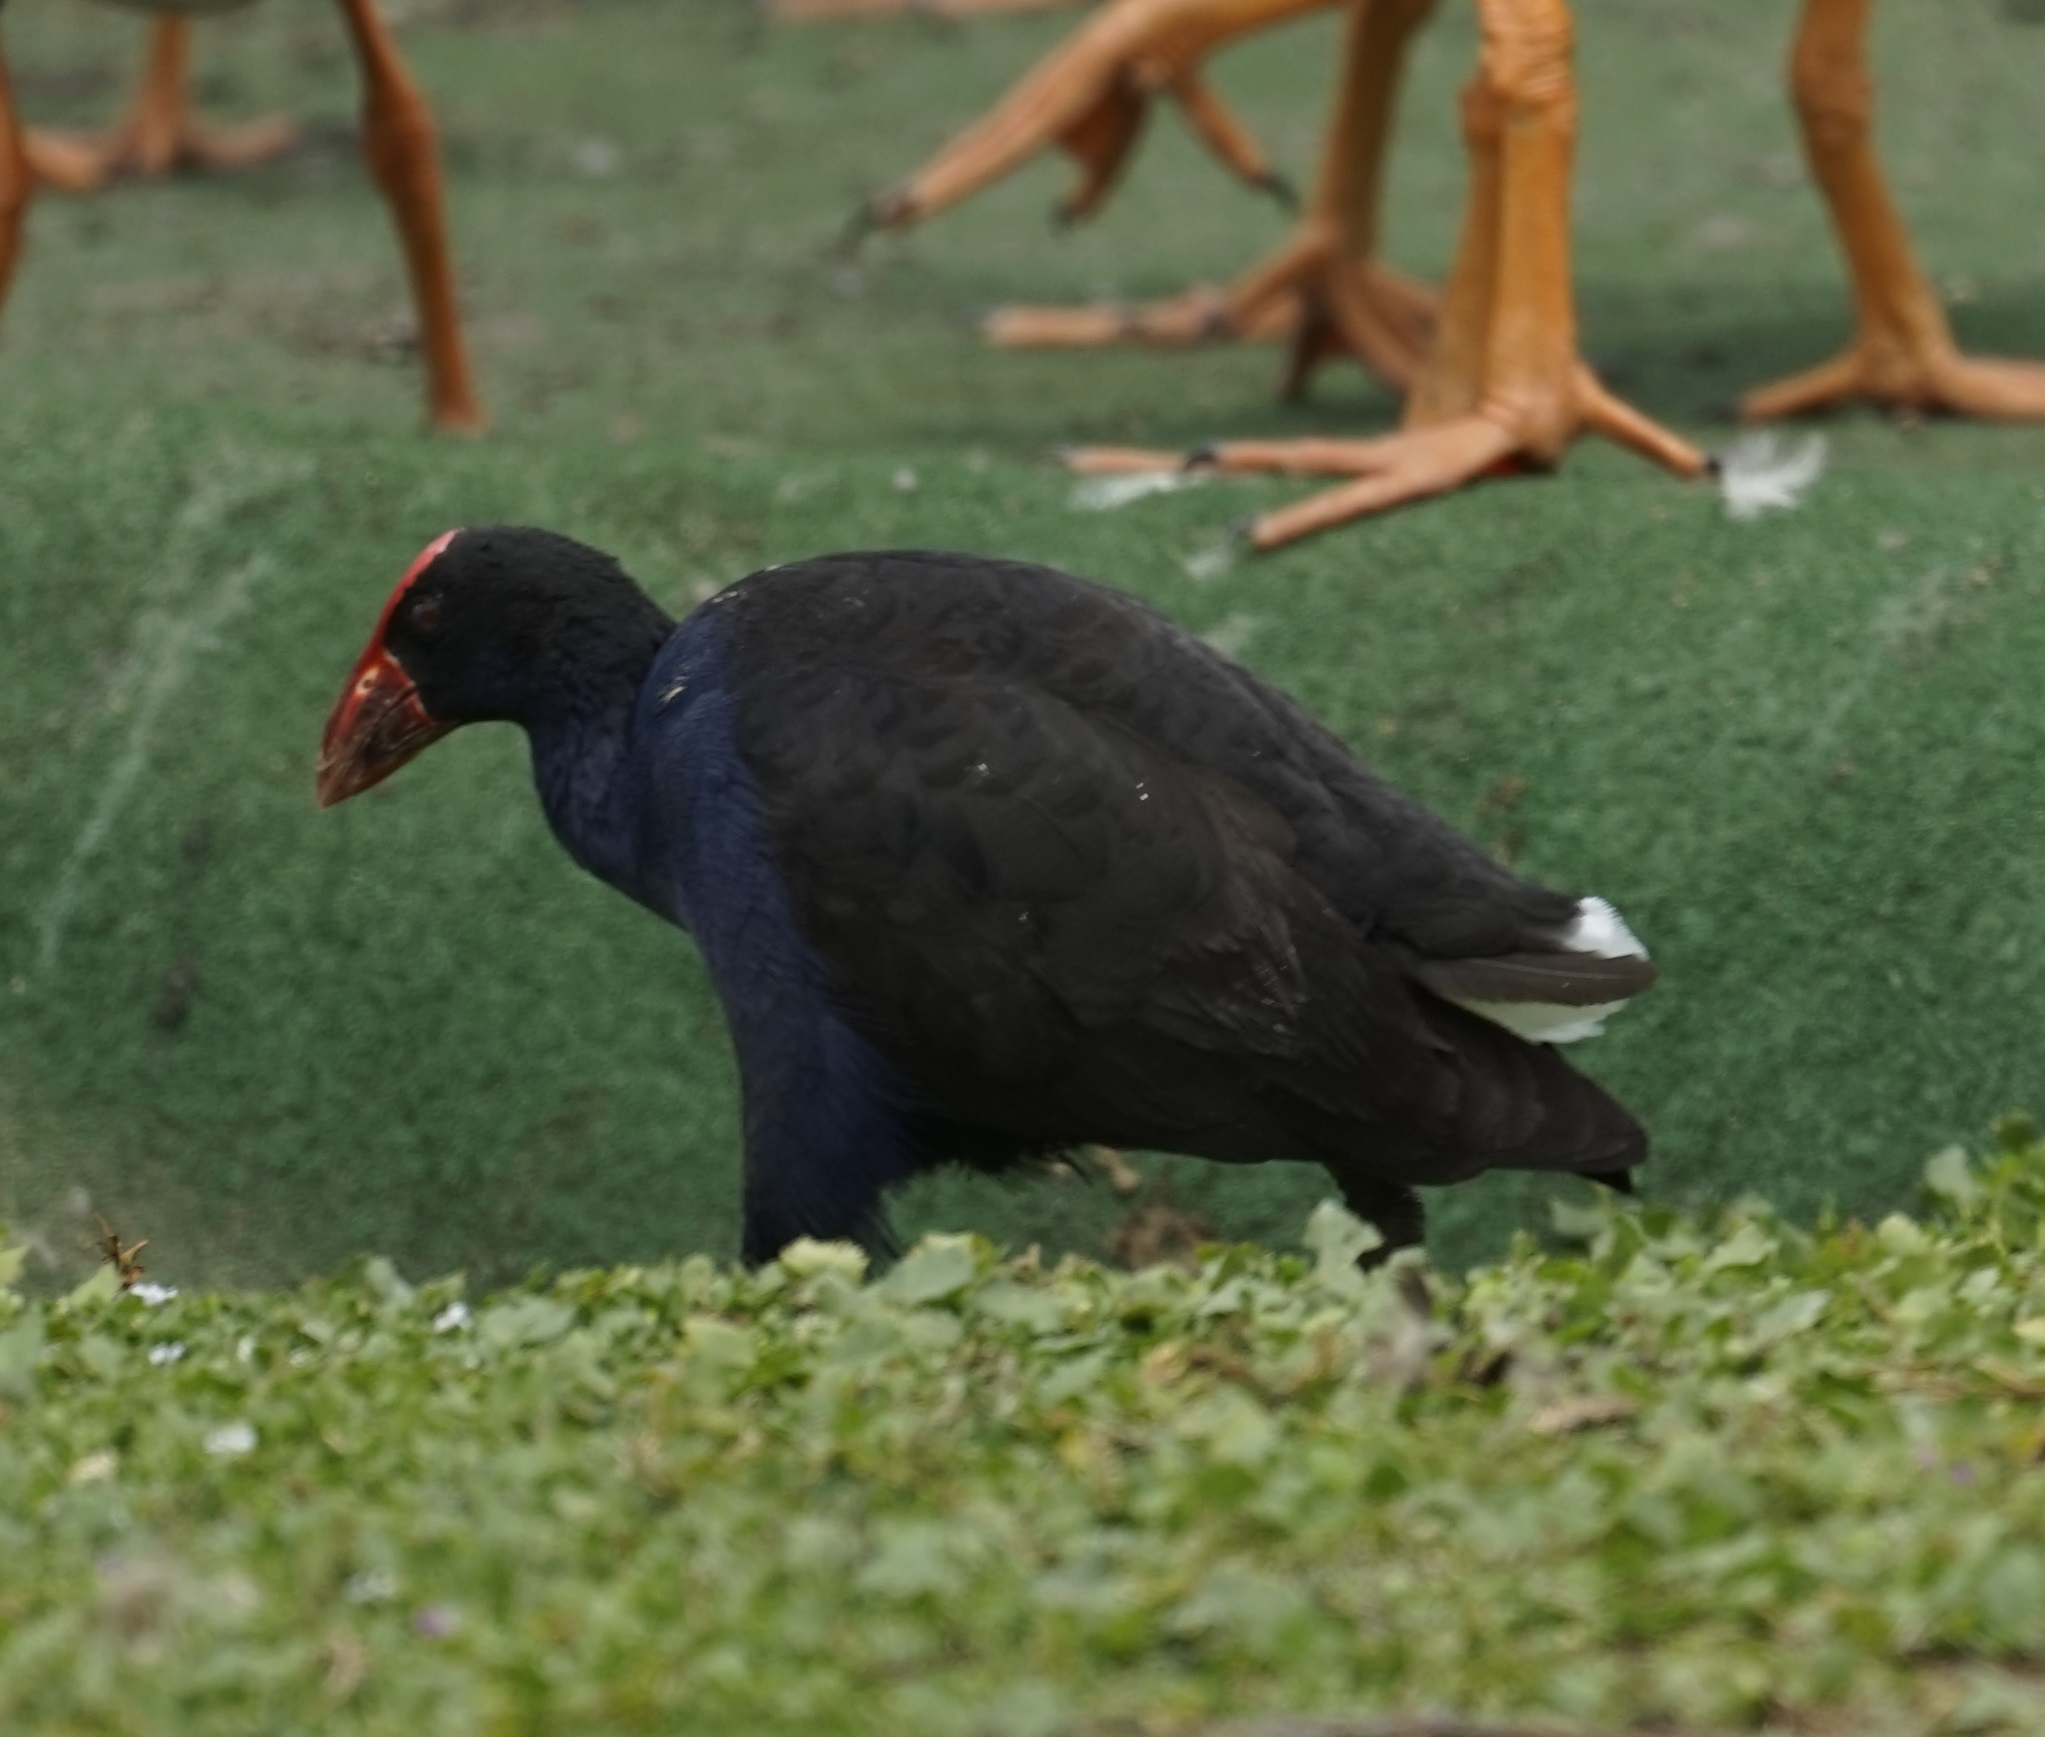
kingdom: Animalia
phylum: Chordata
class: Aves
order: Gruiformes
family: Rallidae
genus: Porphyrio
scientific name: Porphyrio melanotus
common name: Australasian swamphen
